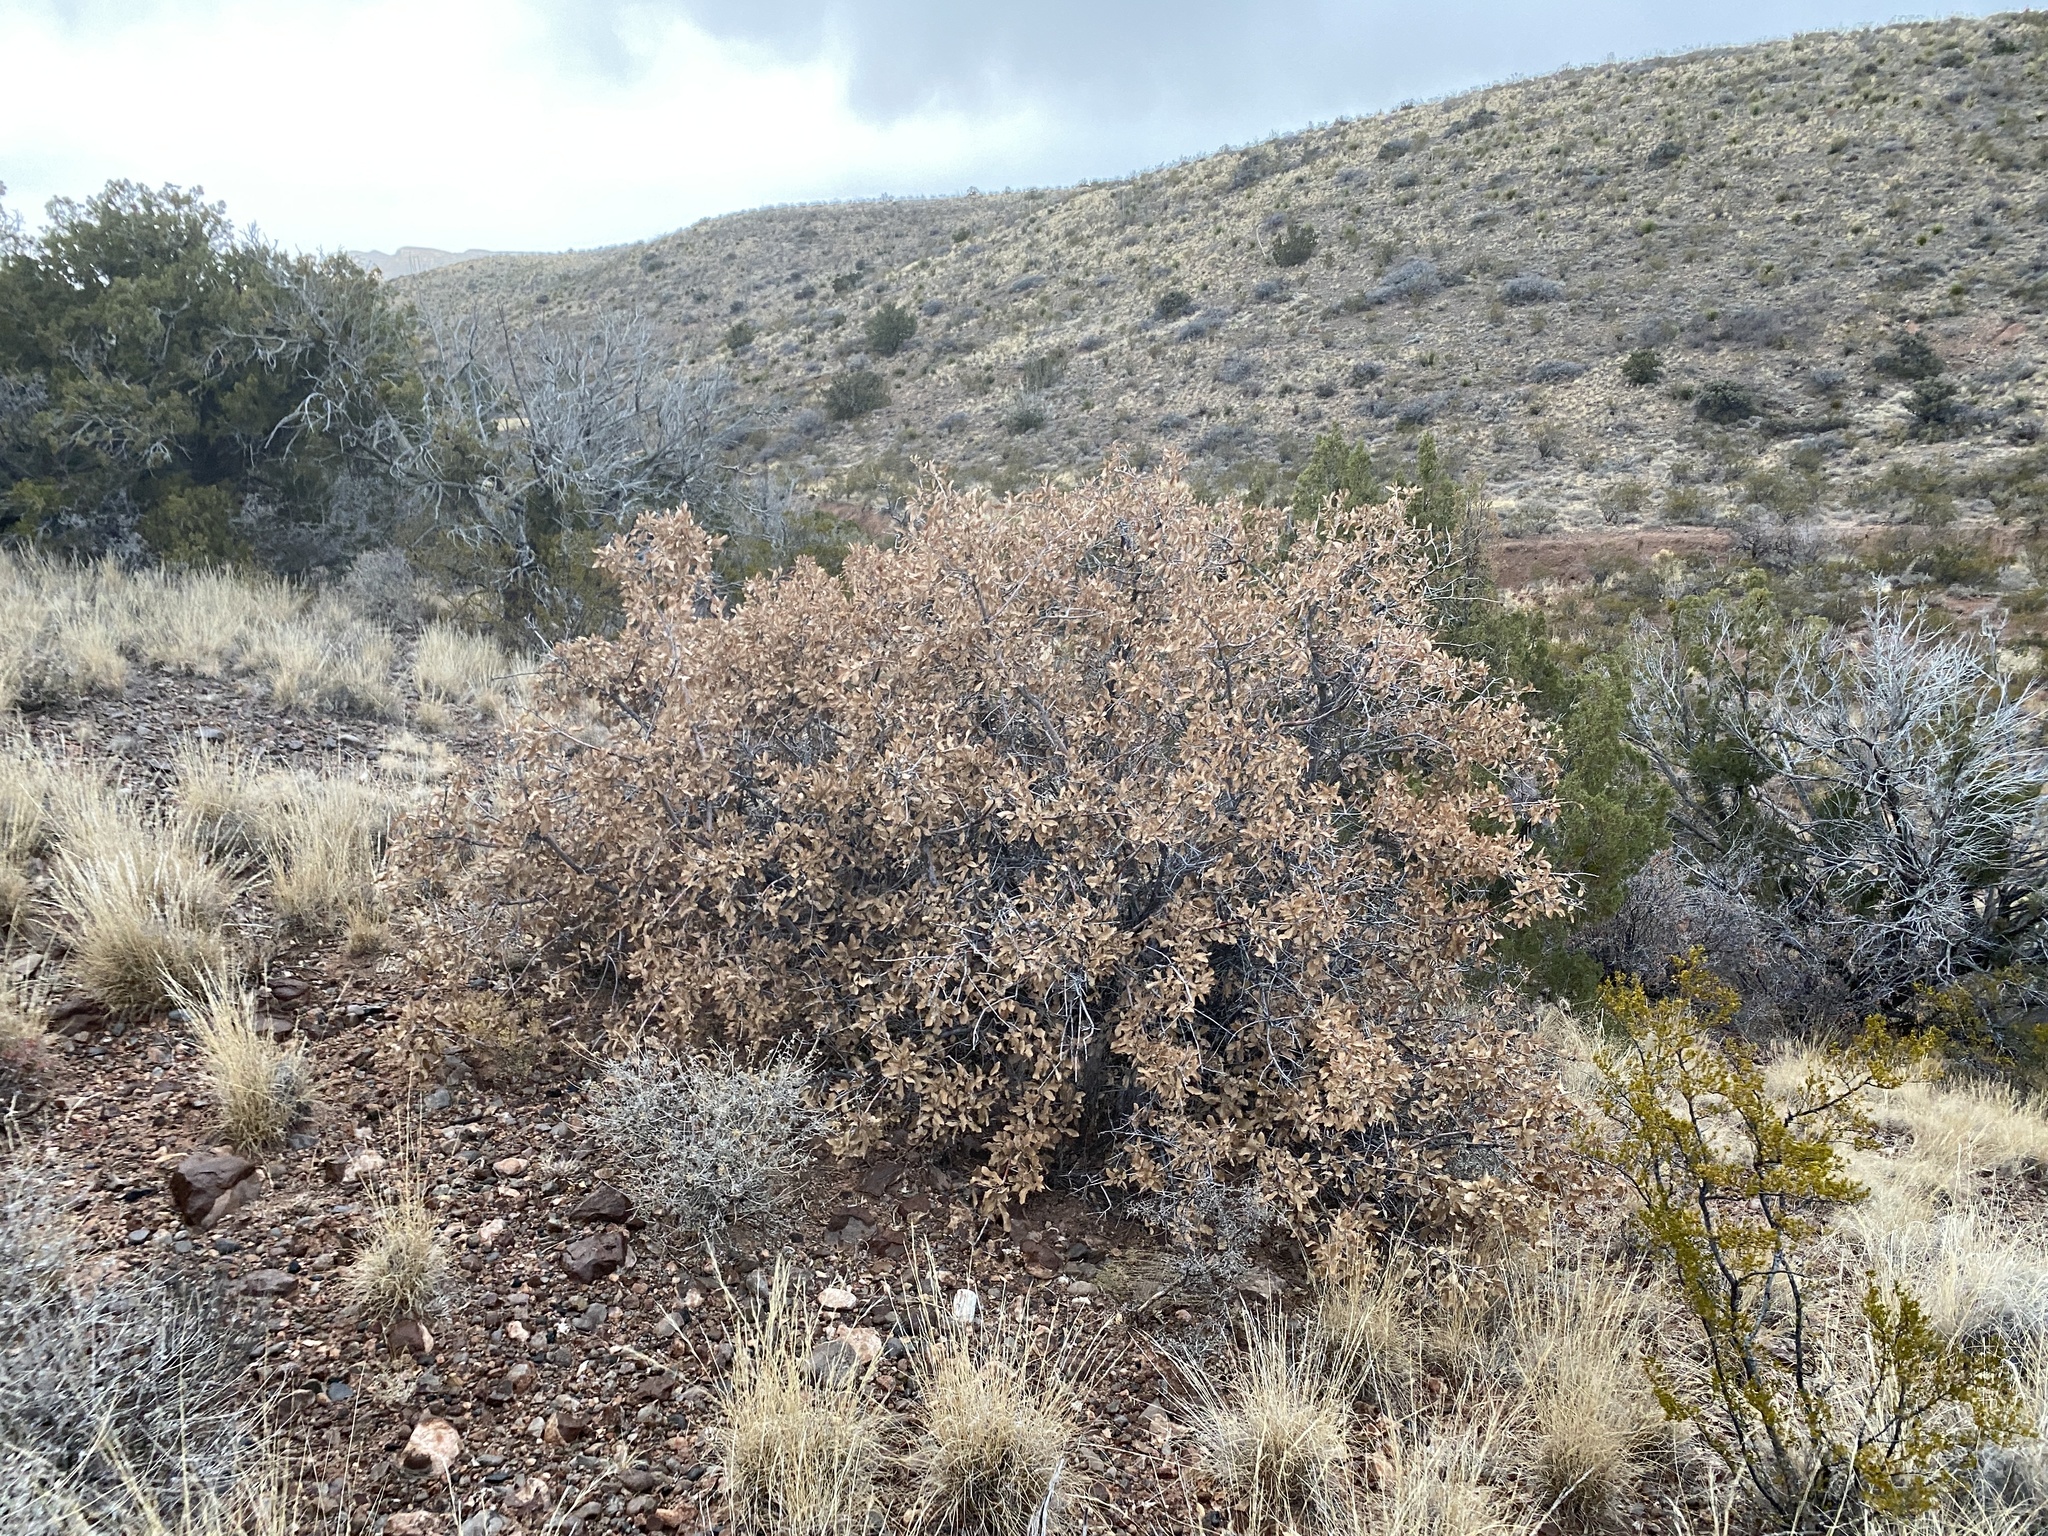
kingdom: Plantae
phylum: Tracheophyta
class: Magnoliopsida
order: Fagales
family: Fagaceae
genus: Quercus
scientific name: Quercus undulata
